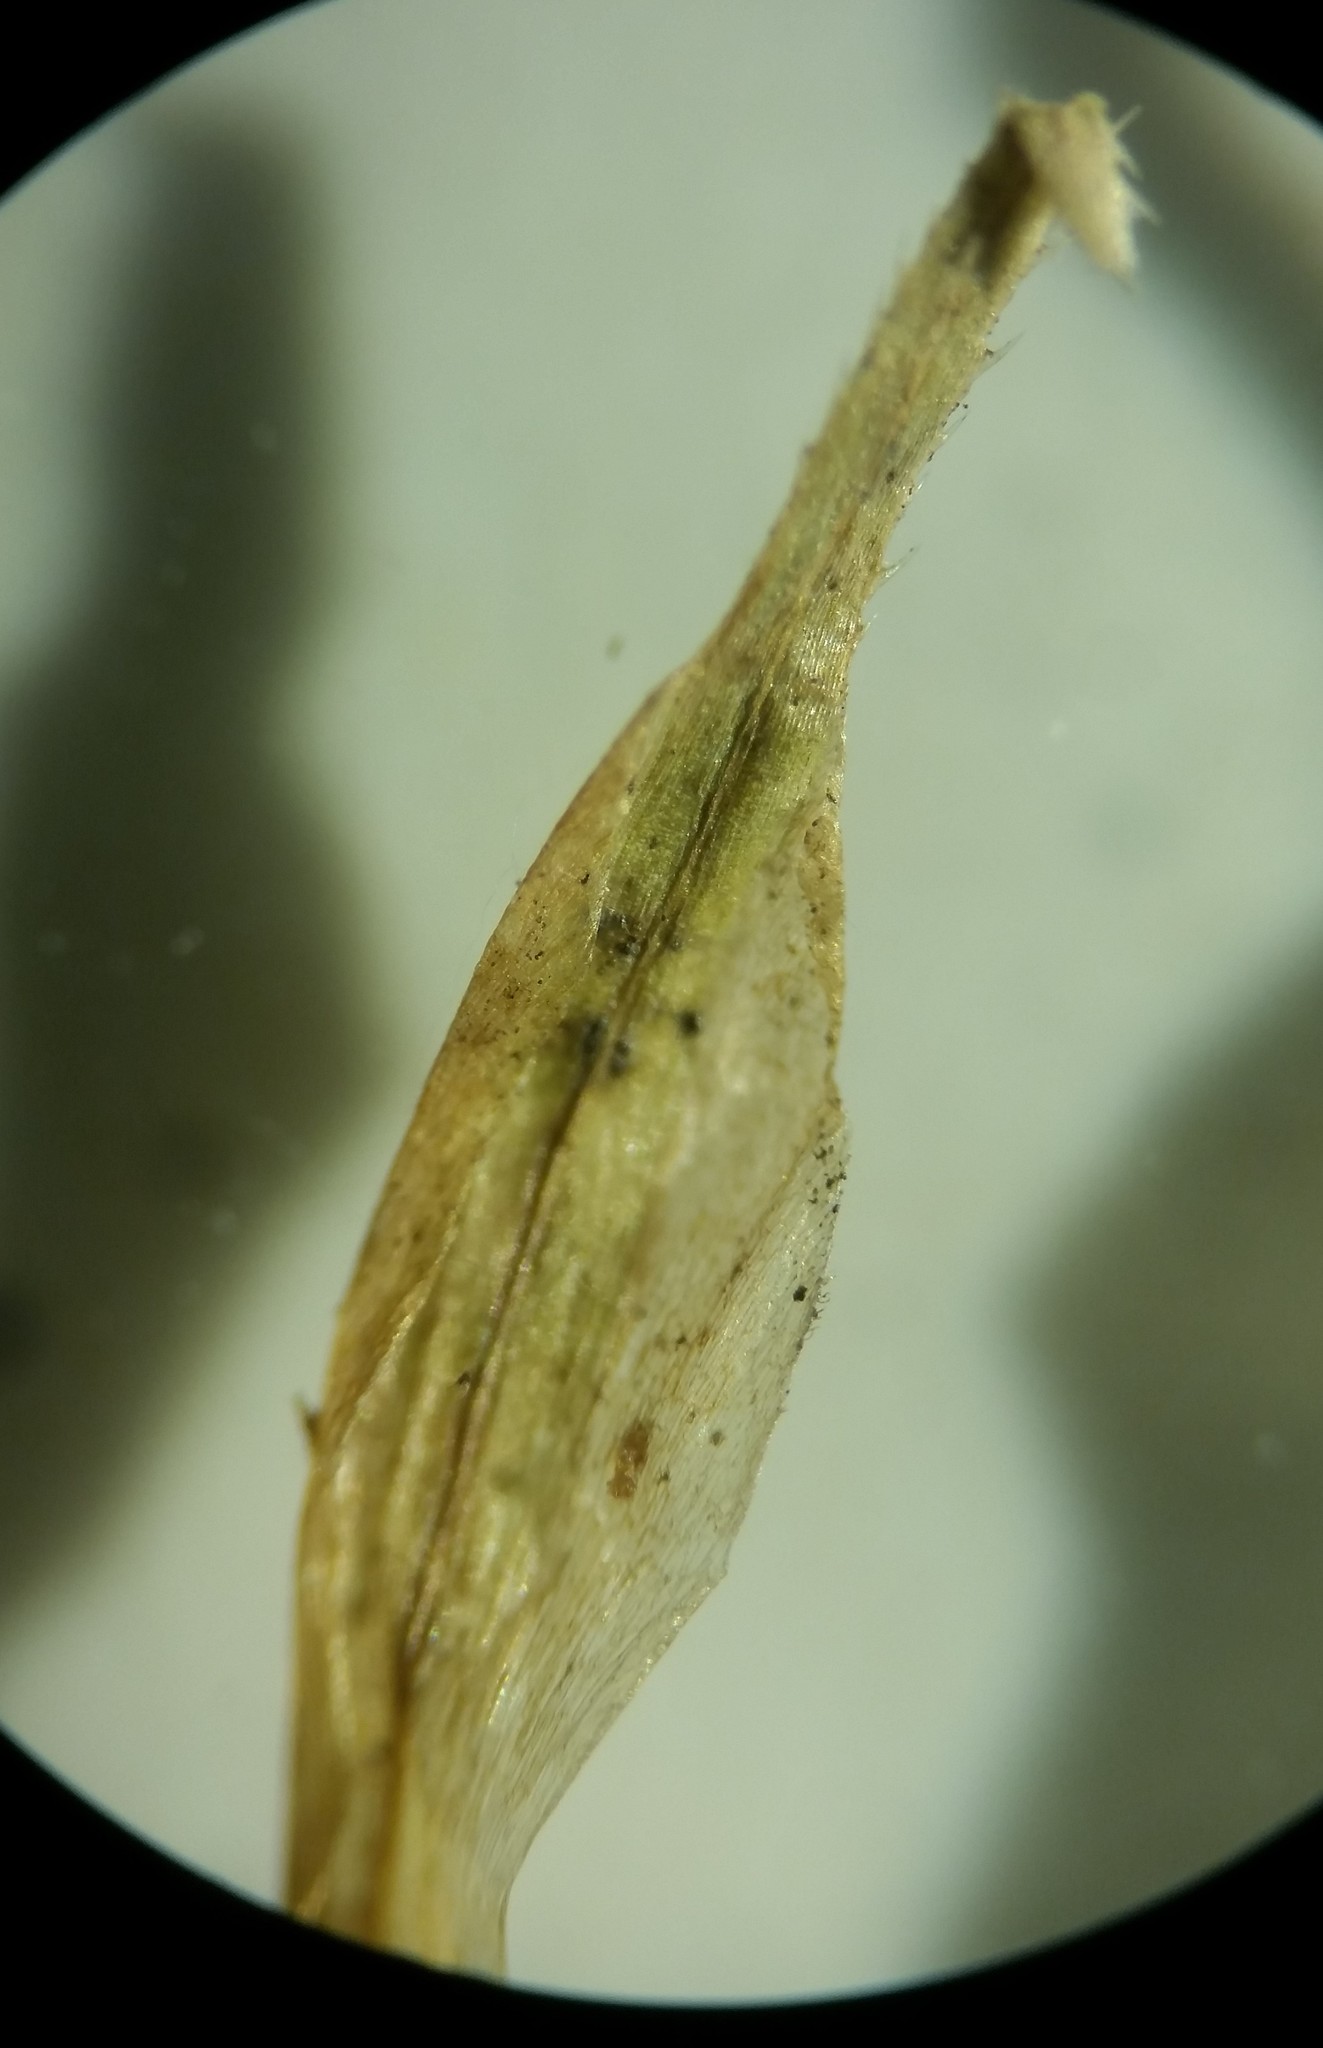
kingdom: Plantae
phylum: Tracheophyta
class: Liliopsida
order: Poales
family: Cyperaceae
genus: Carex
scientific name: Carex gynandra
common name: Nodding sedge
